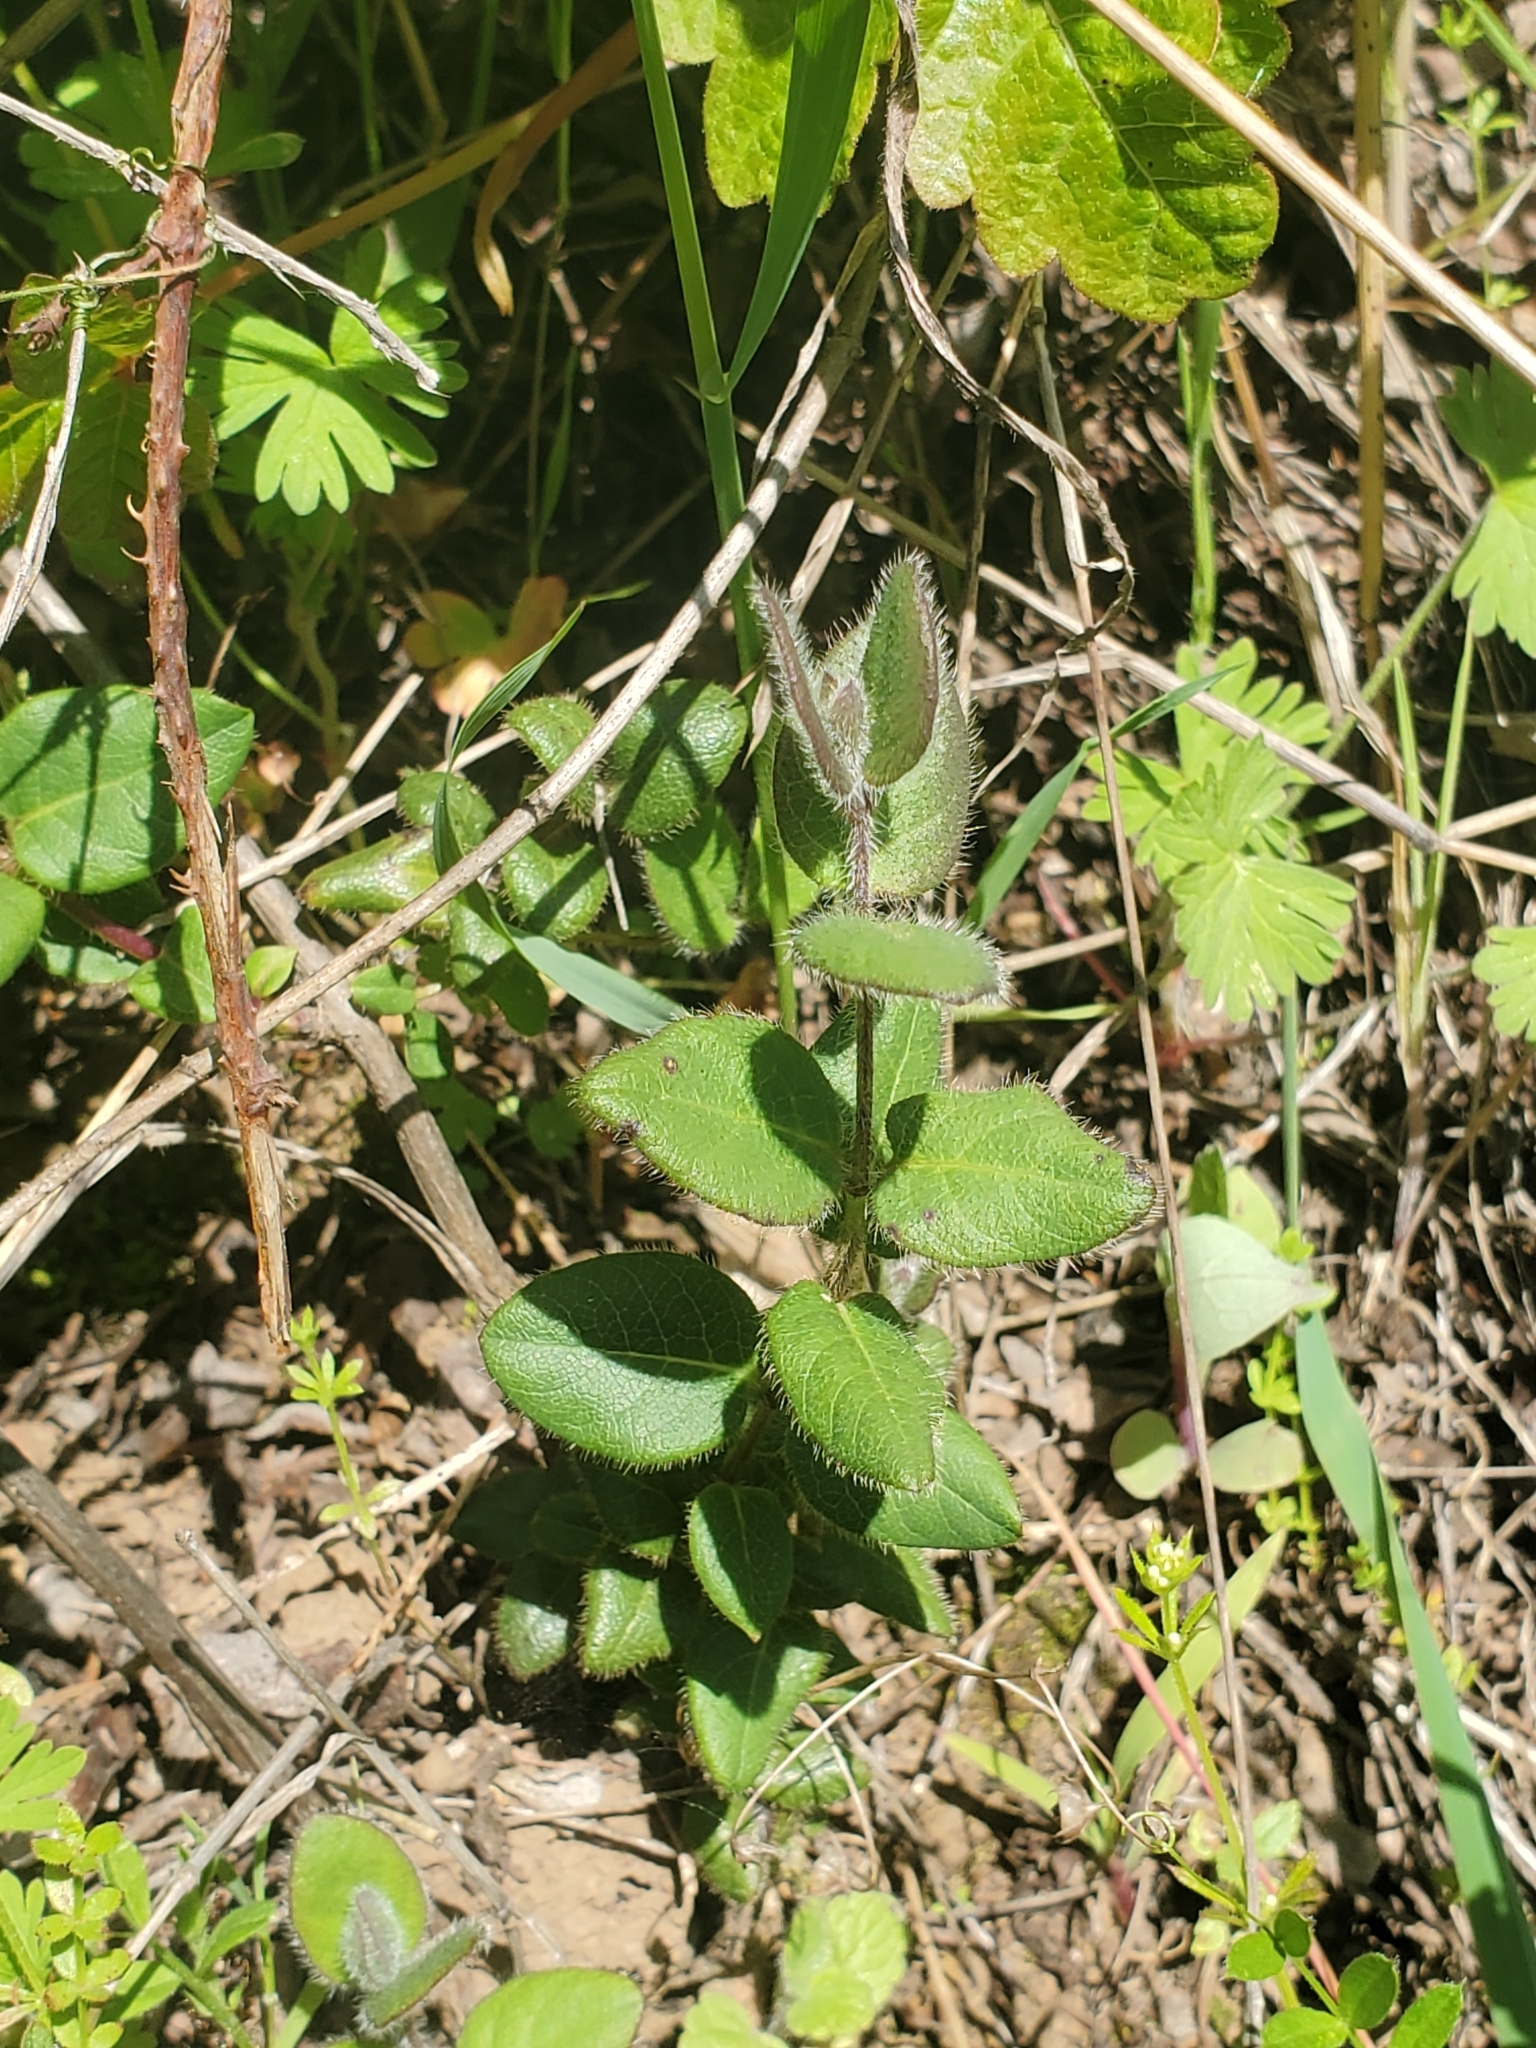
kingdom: Plantae
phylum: Tracheophyta
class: Magnoliopsida
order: Dipsacales
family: Caprifoliaceae
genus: Lonicera
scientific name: Lonicera hispidula
